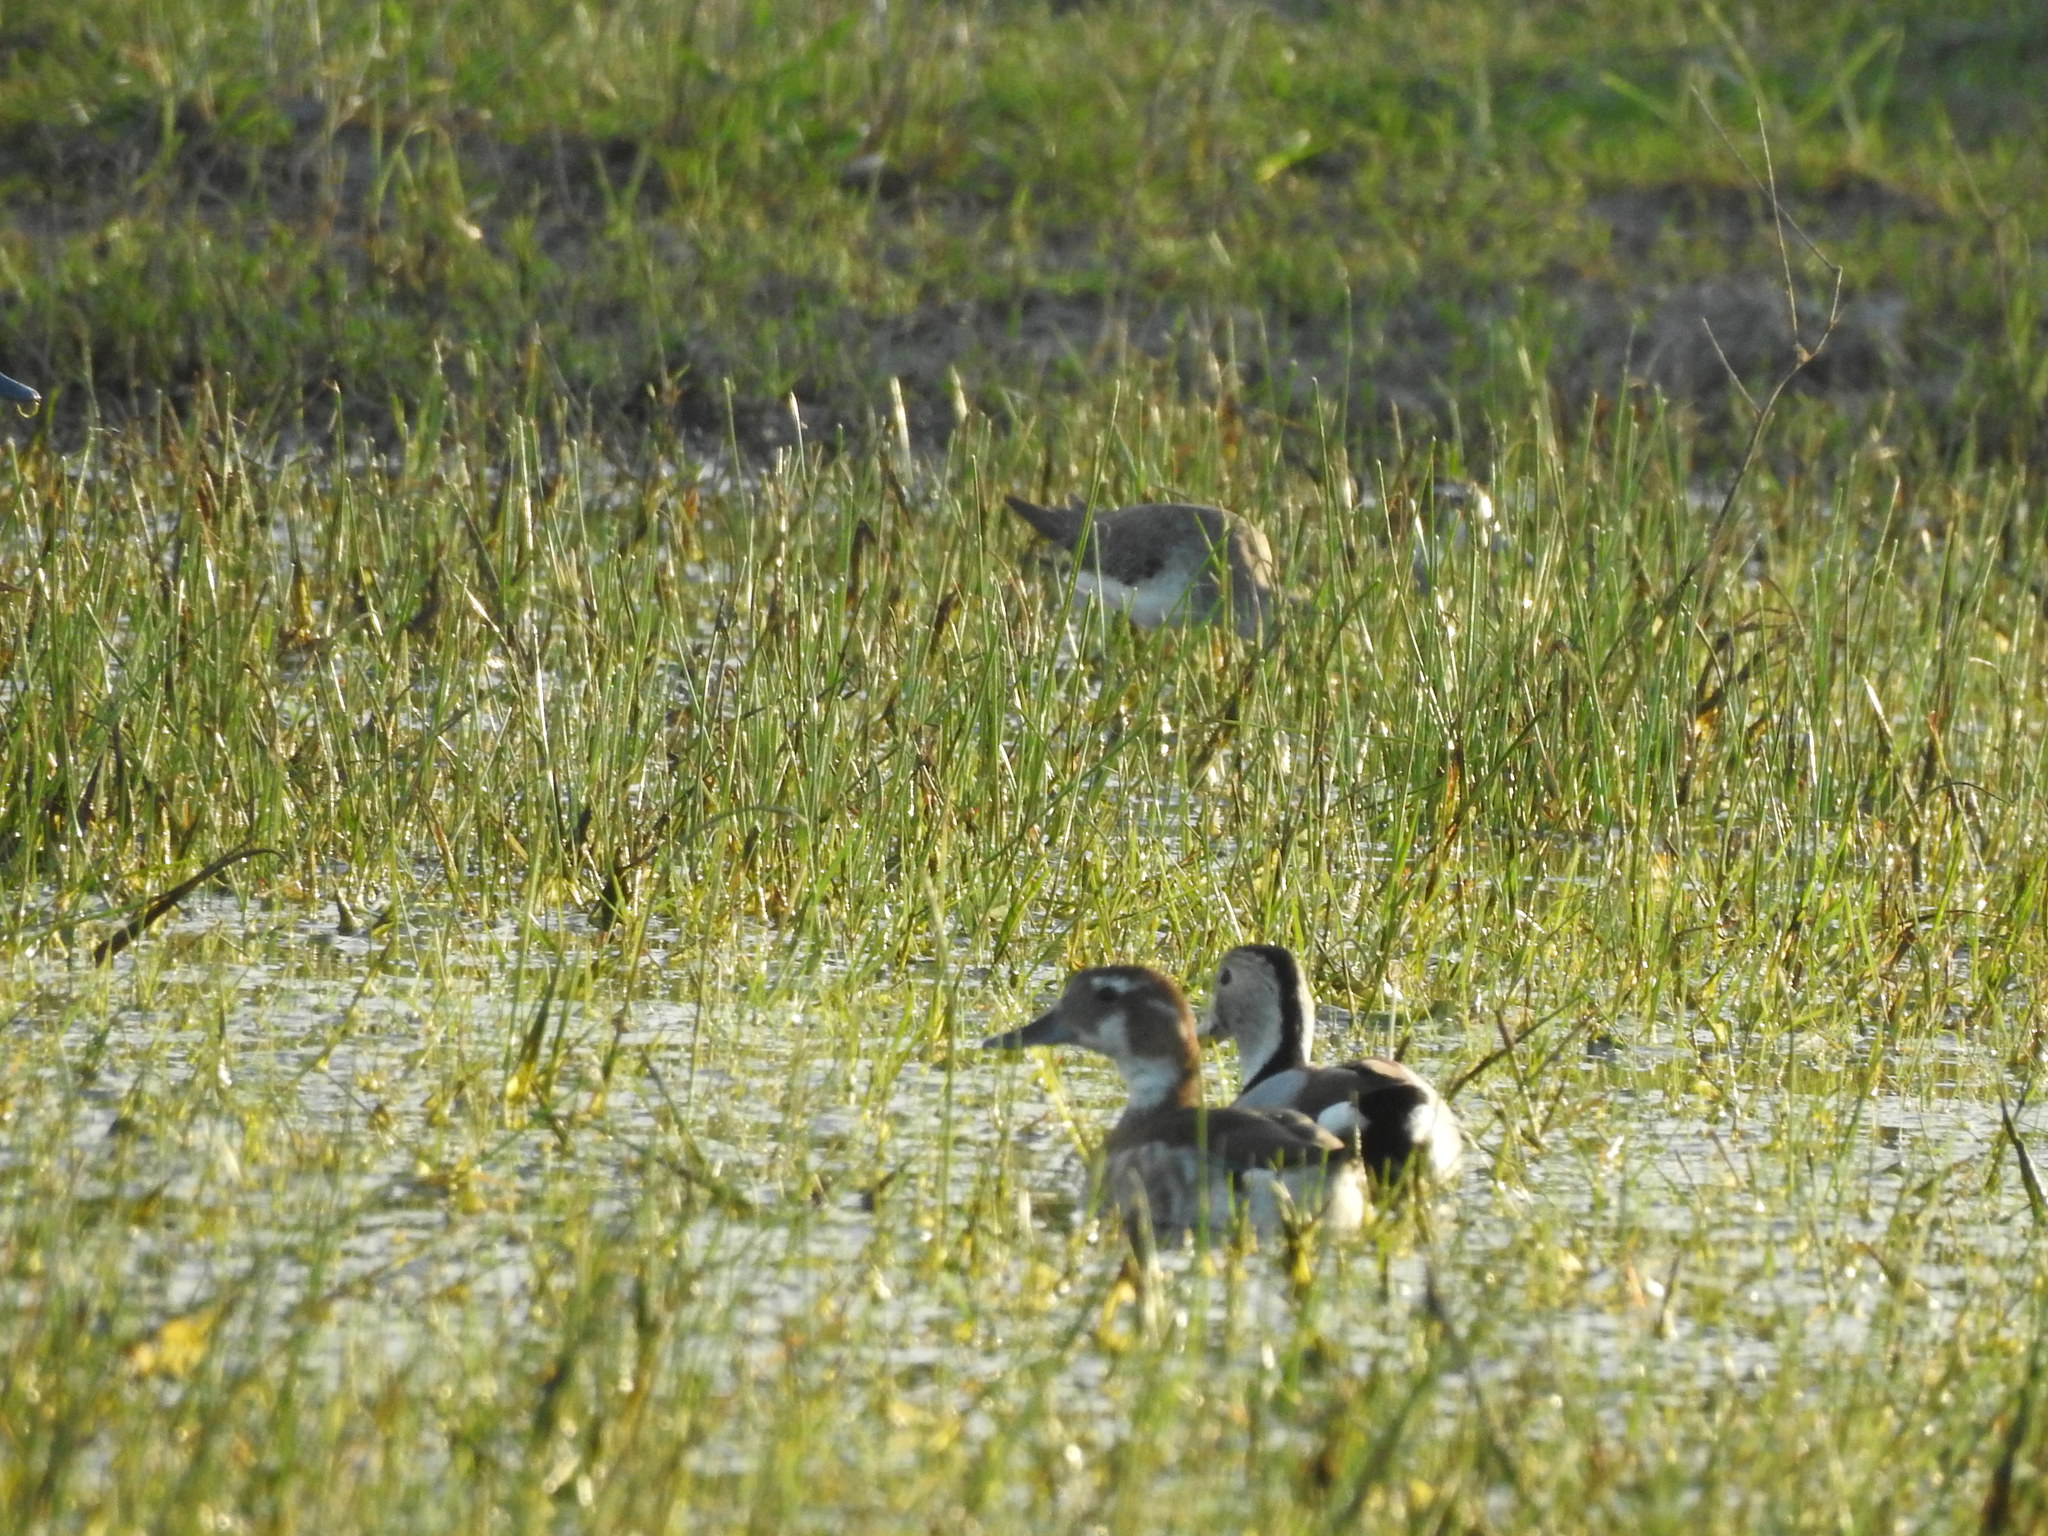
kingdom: Animalia
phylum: Chordata
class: Aves
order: Anseriformes
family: Anatidae
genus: Callonetta
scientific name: Callonetta leucophrys
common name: Ringed teal
